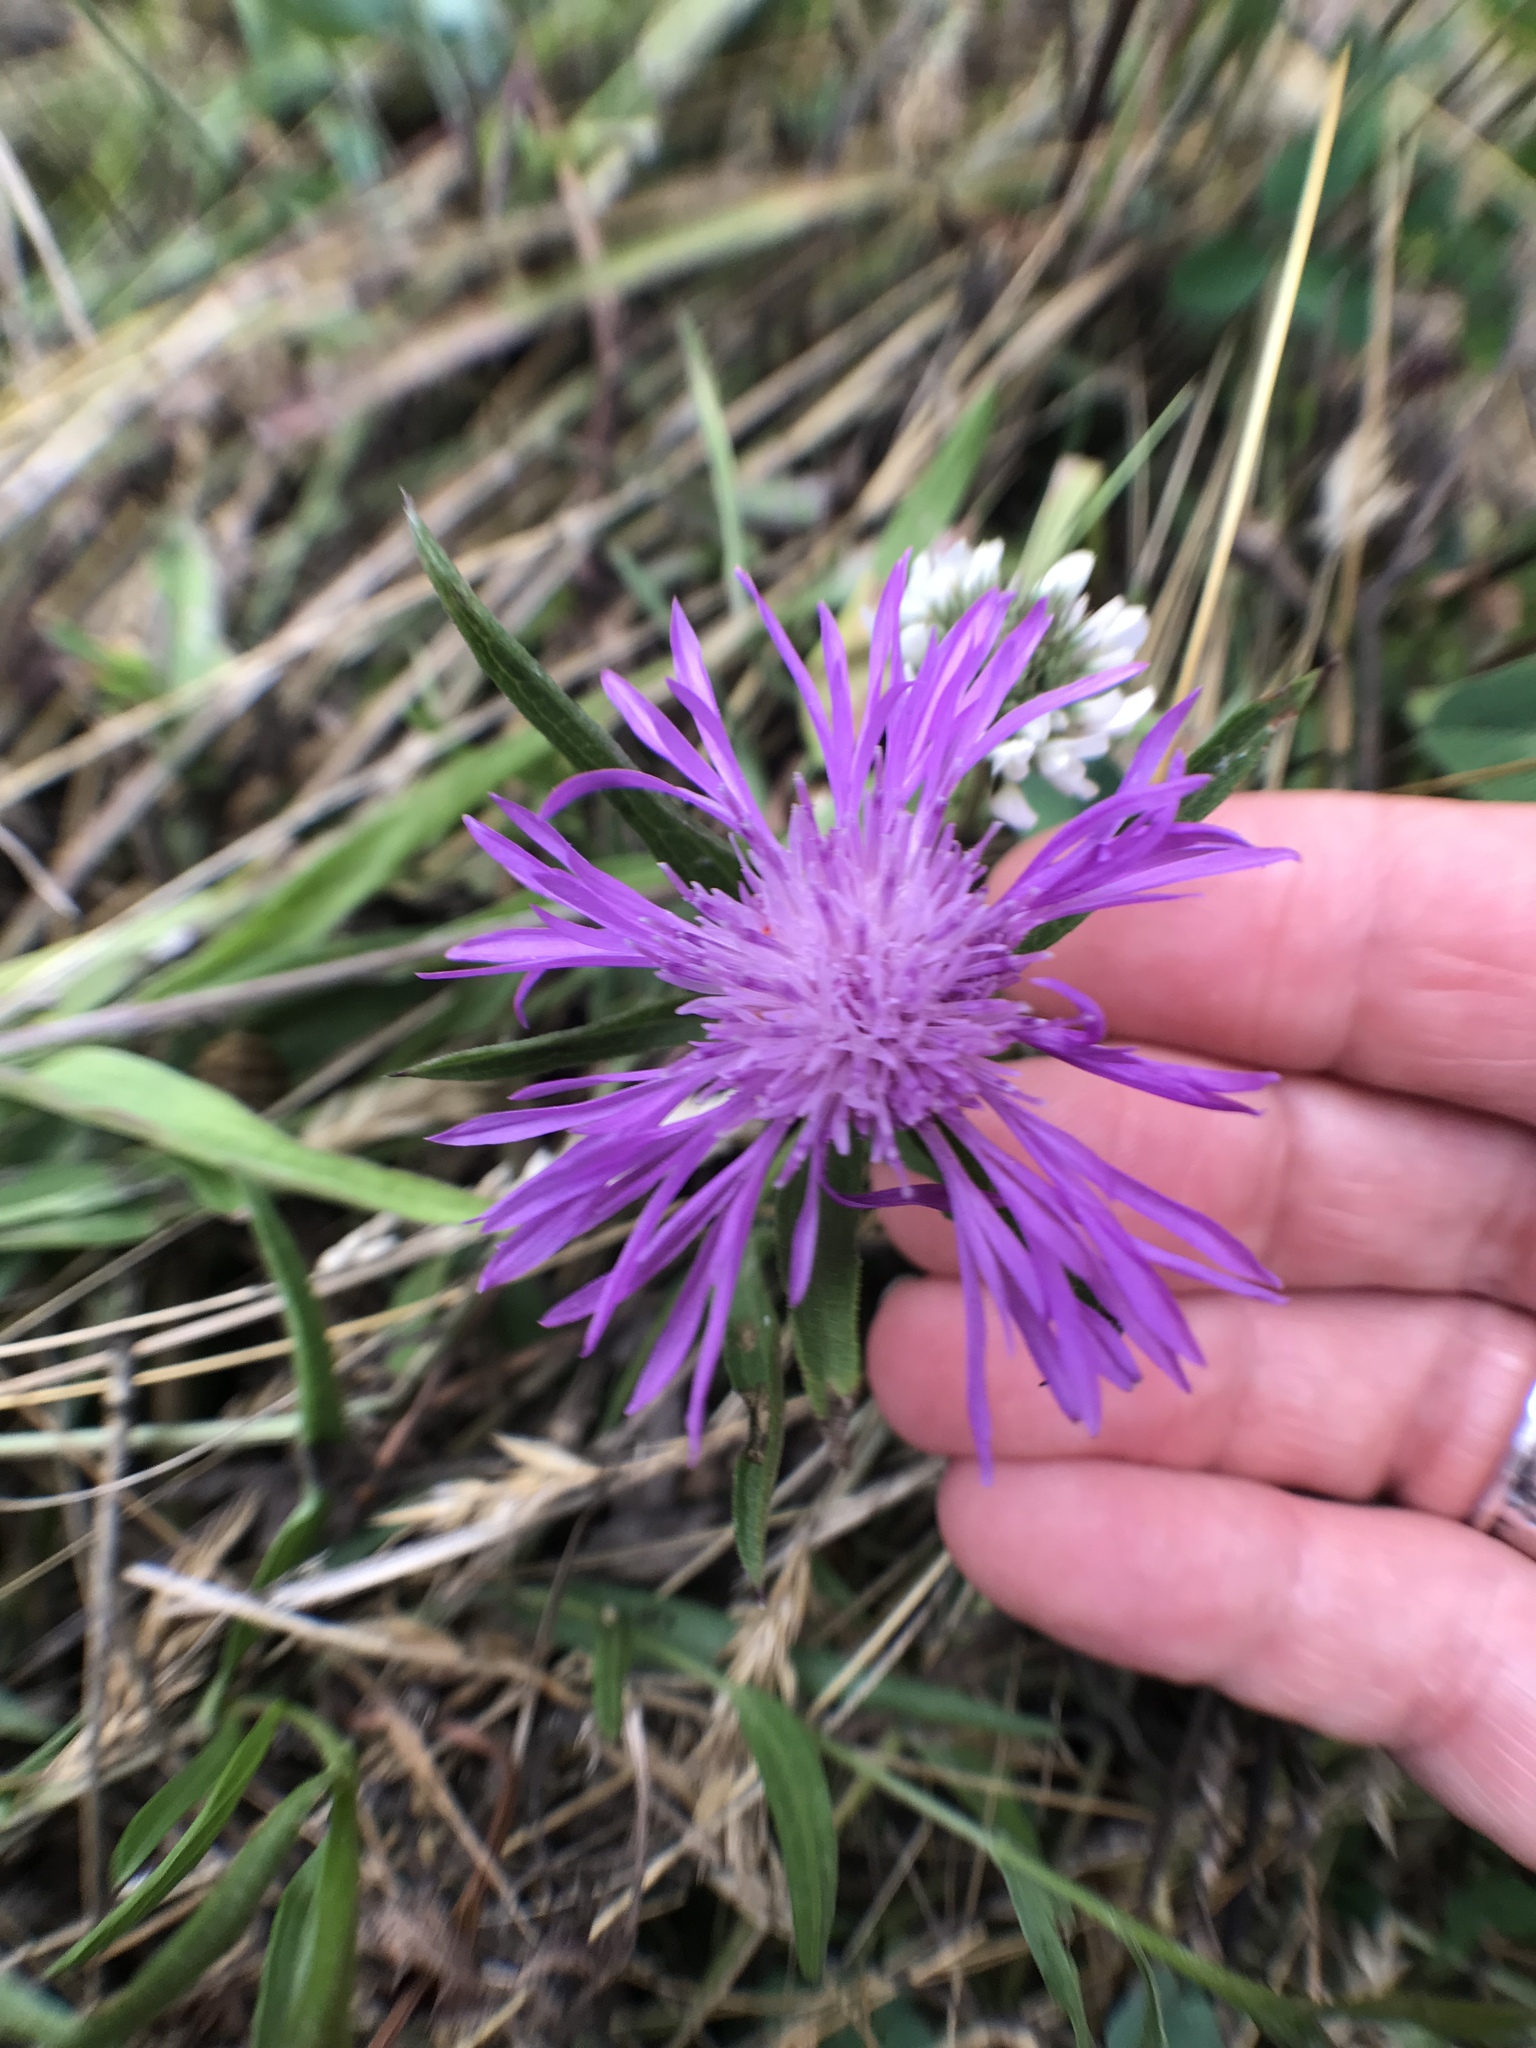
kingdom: Plantae
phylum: Tracheophyta
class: Magnoliopsida
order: Asterales
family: Asteraceae
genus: Centaurea
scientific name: Centaurea jacea
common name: Brown knapweed
